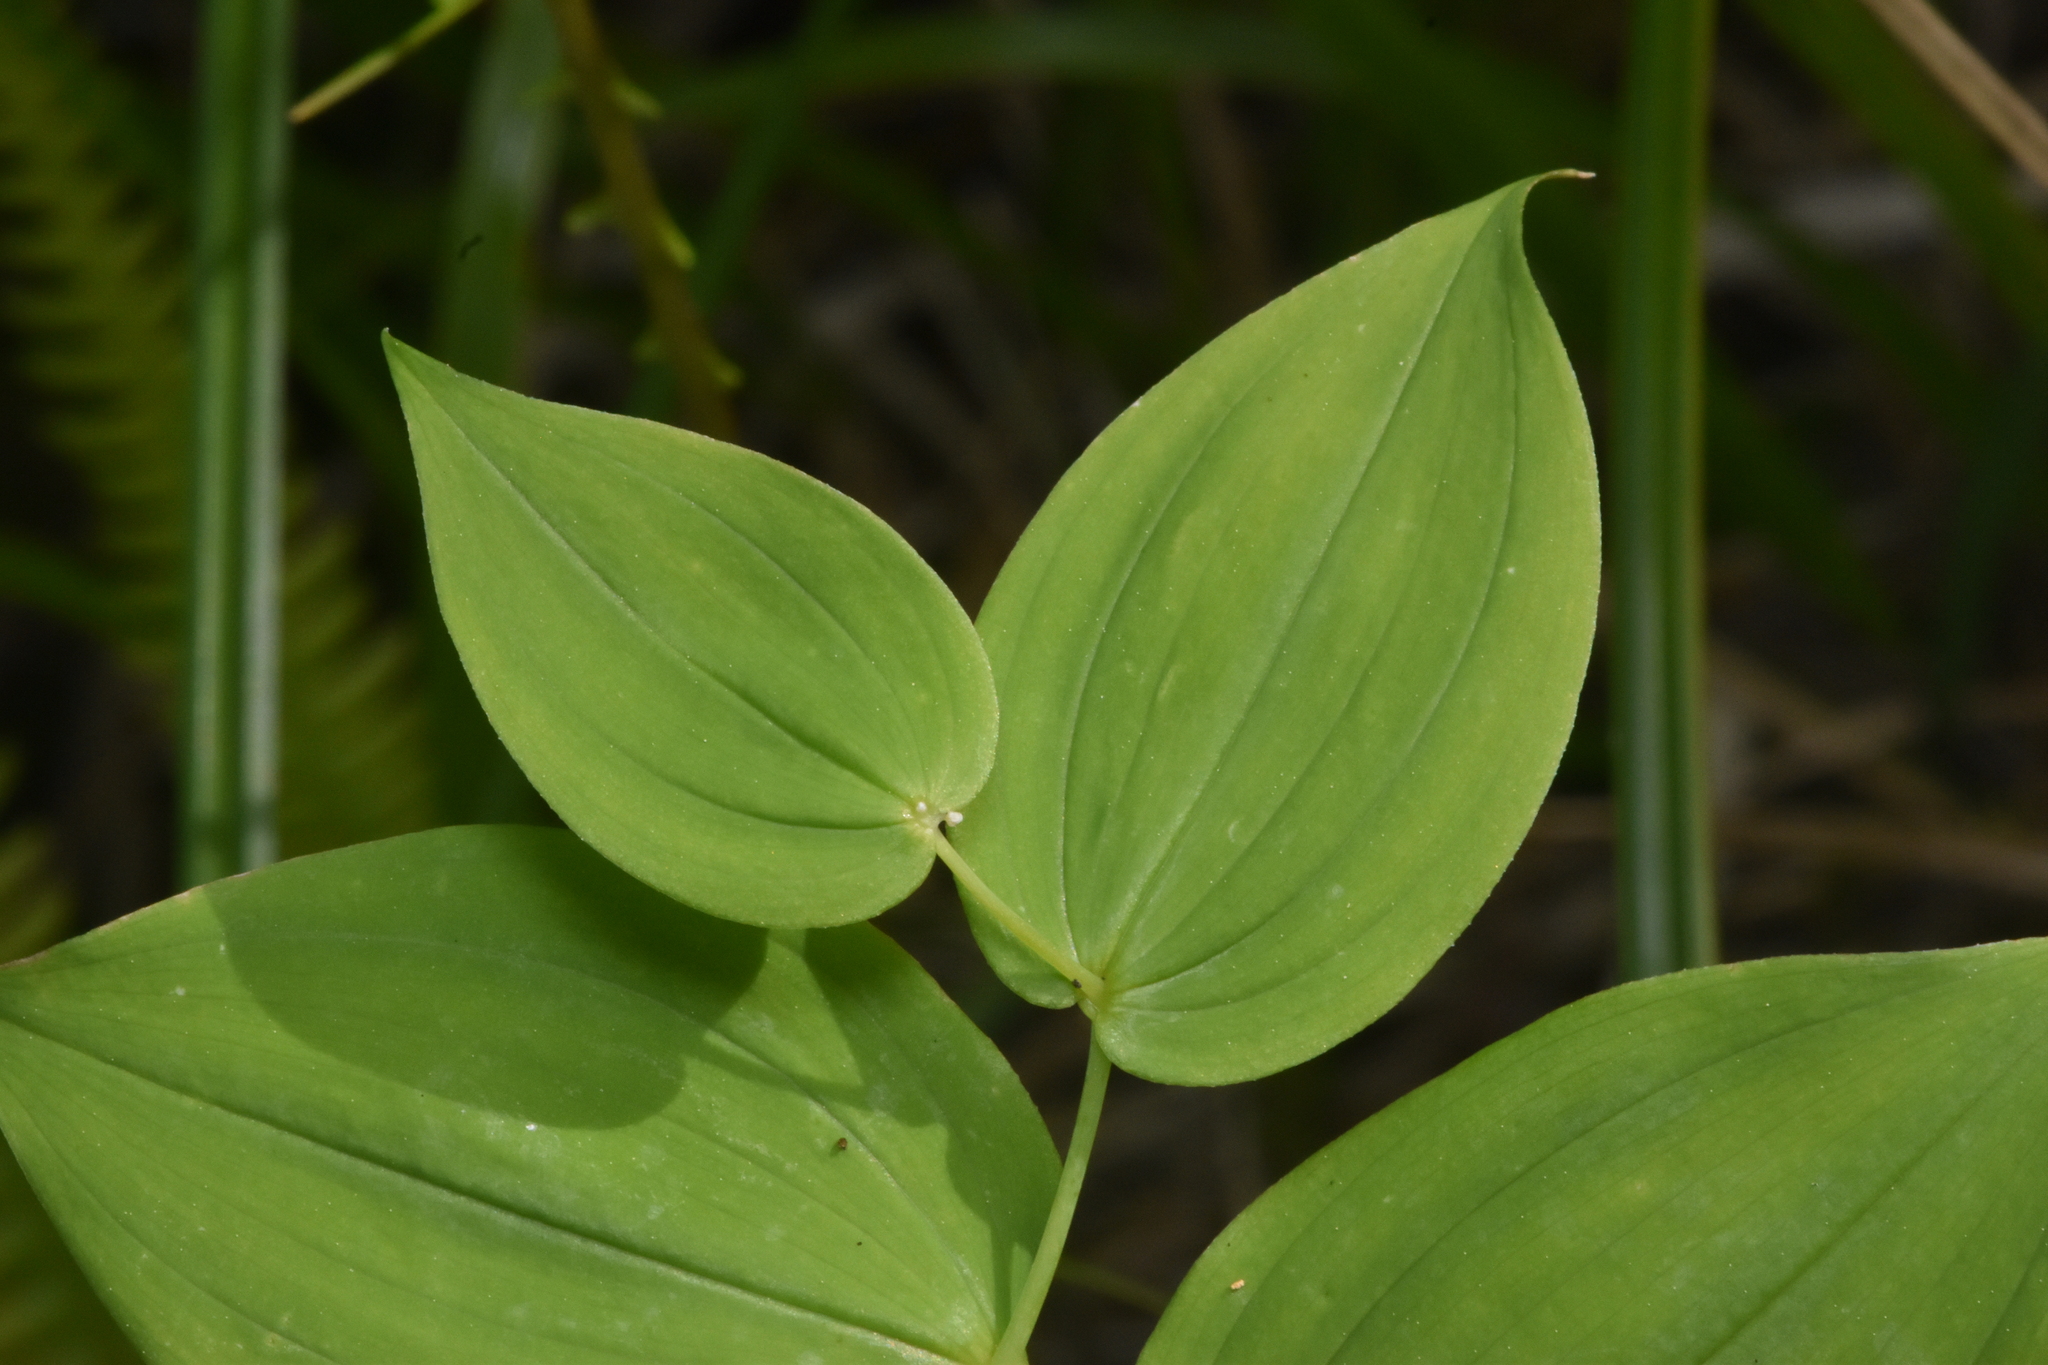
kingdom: Plantae
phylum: Tracheophyta
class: Liliopsida
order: Liliales
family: Liliaceae
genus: Streptopus
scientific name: Streptopus amplexifolius
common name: Clasp twisted stalk
